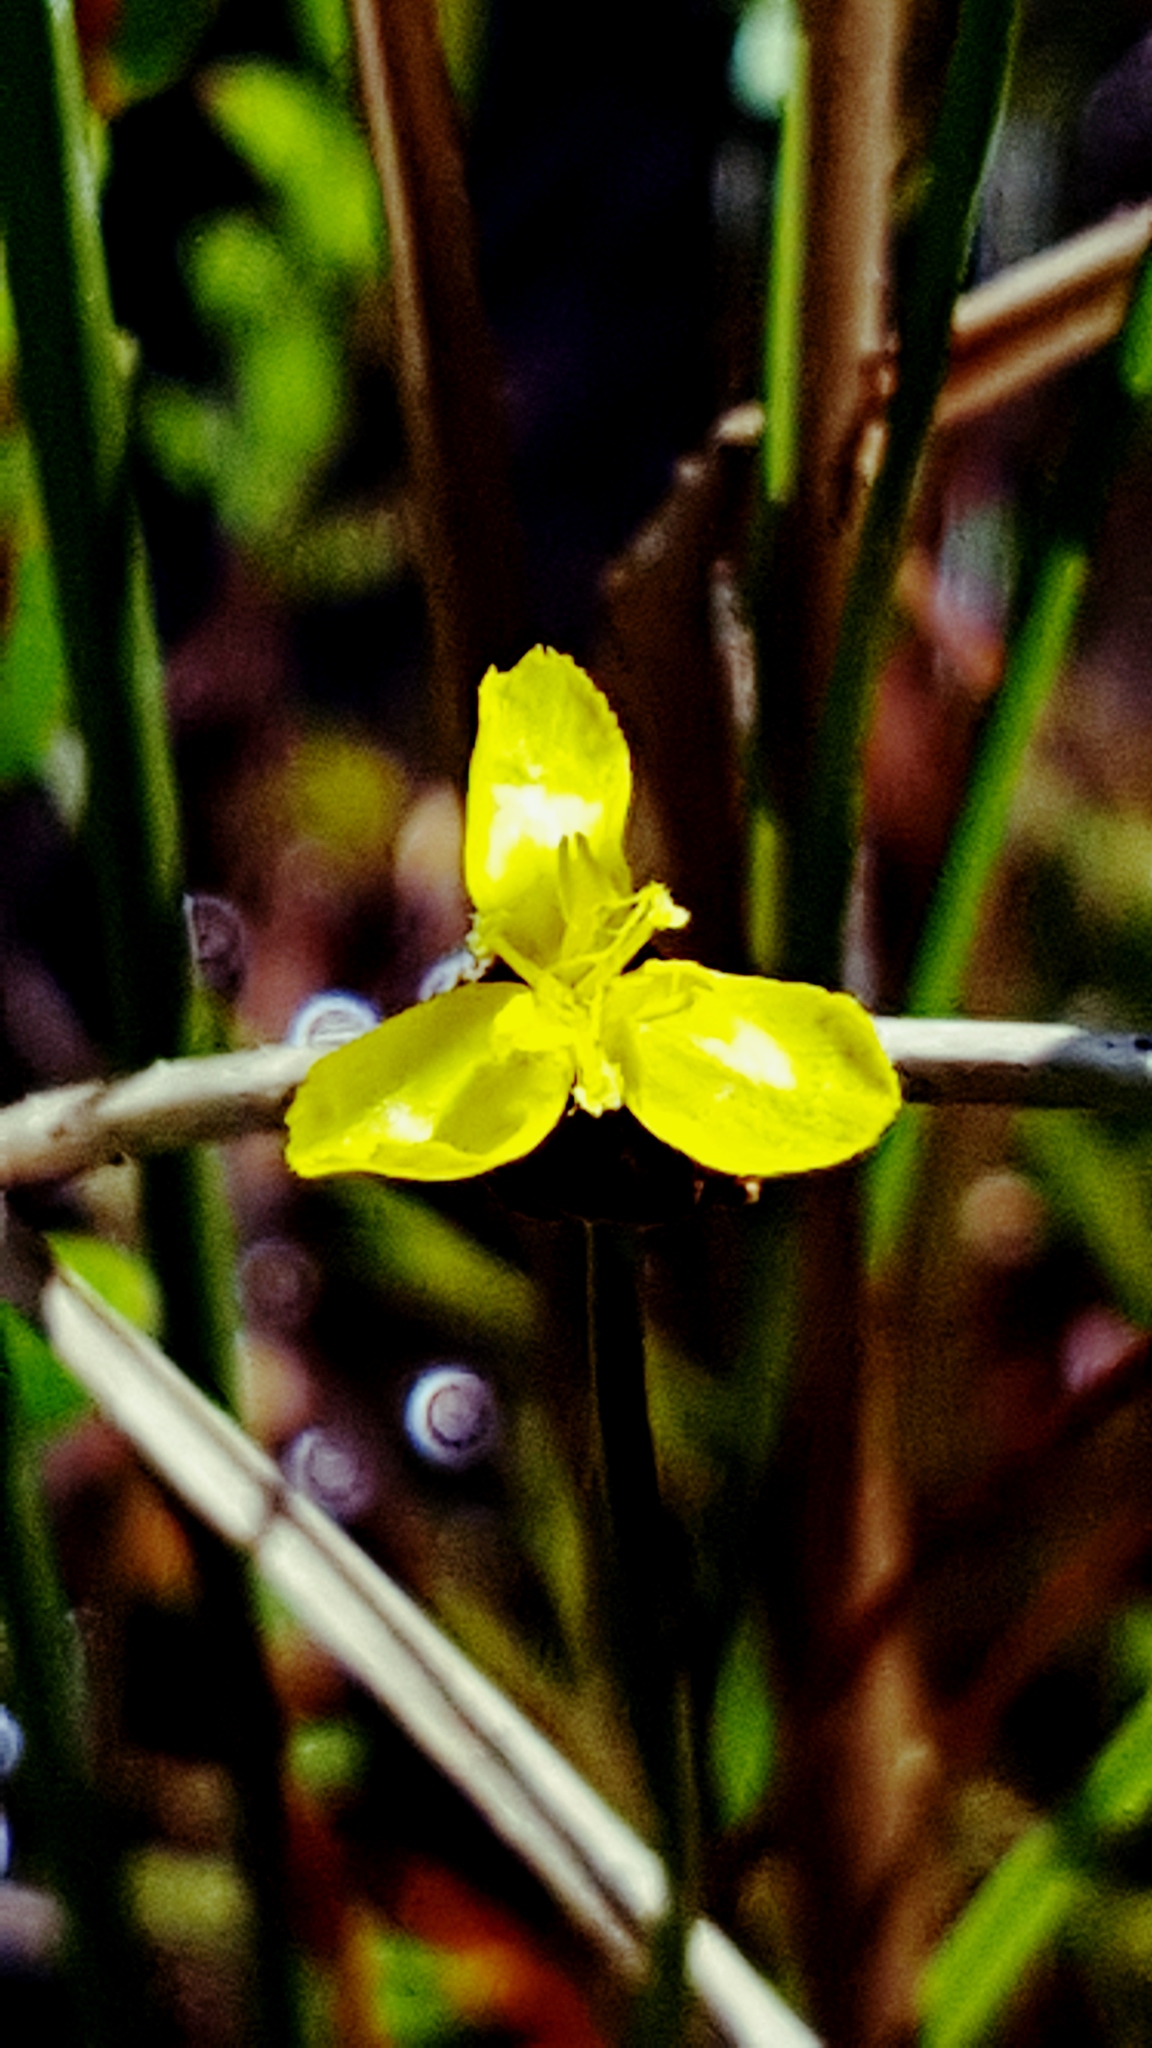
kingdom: Plantae
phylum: Tracheophyta
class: Liliopsida
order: Poales
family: Xyridaceae
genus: Xyris
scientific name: Xyris montana
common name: Northern yellow-eyed-grass
